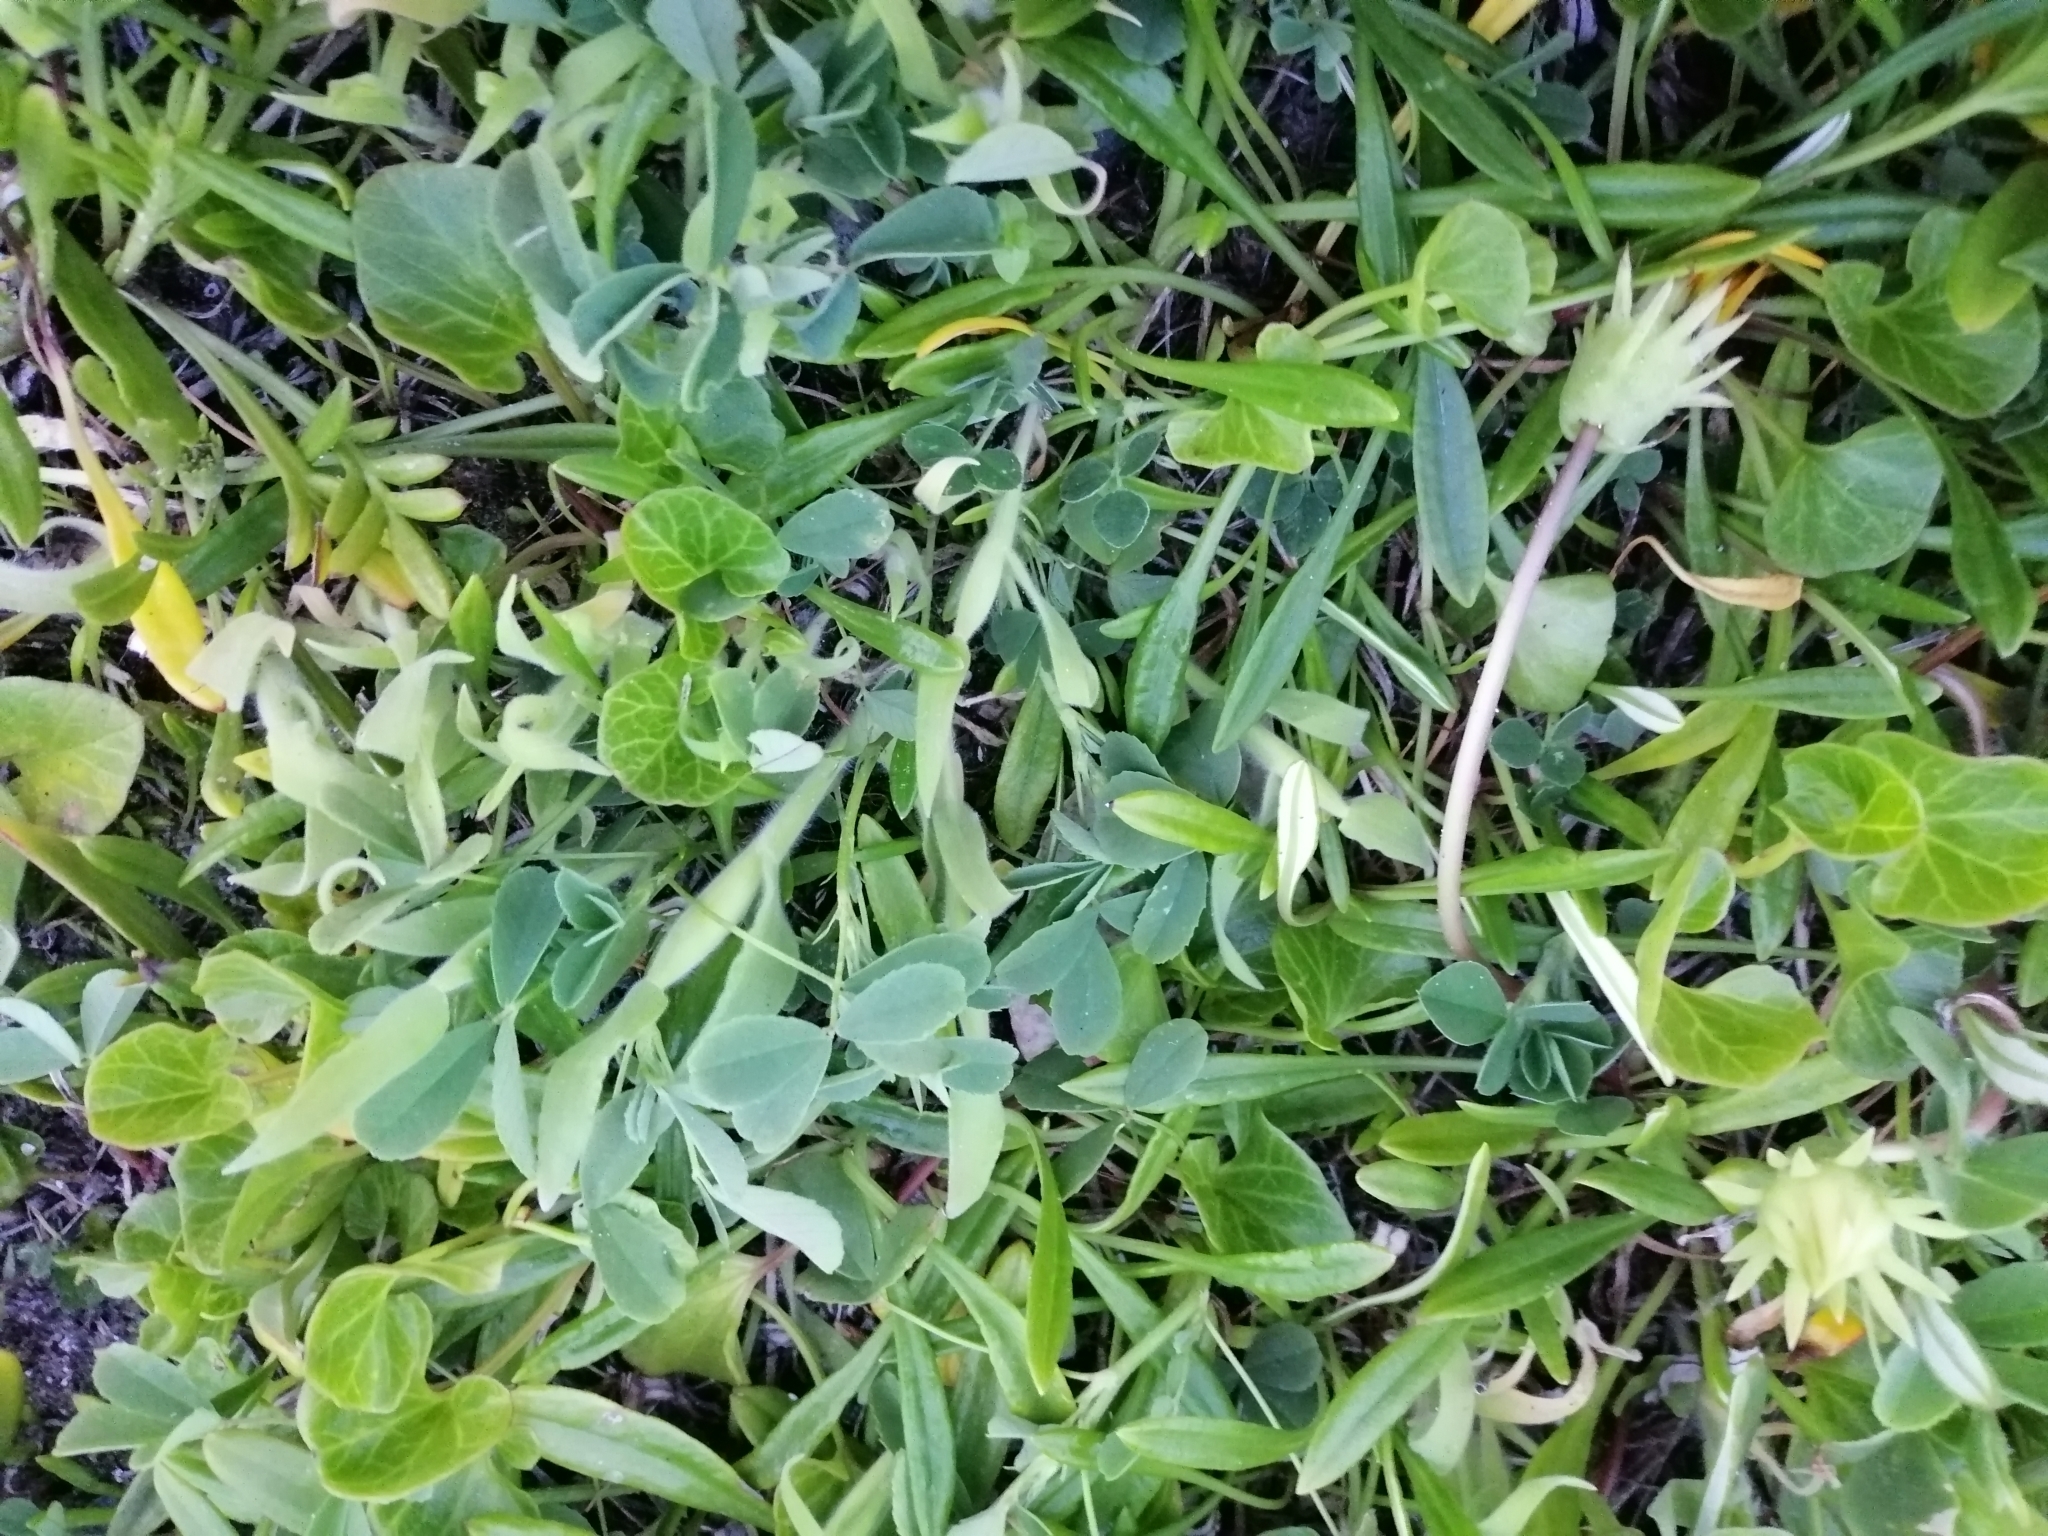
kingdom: Plantae
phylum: Tracheophyta
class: Liliopsida
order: Poales
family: Poaceae
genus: Holcus
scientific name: Holcus lanatus
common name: Yorkshire-fog
